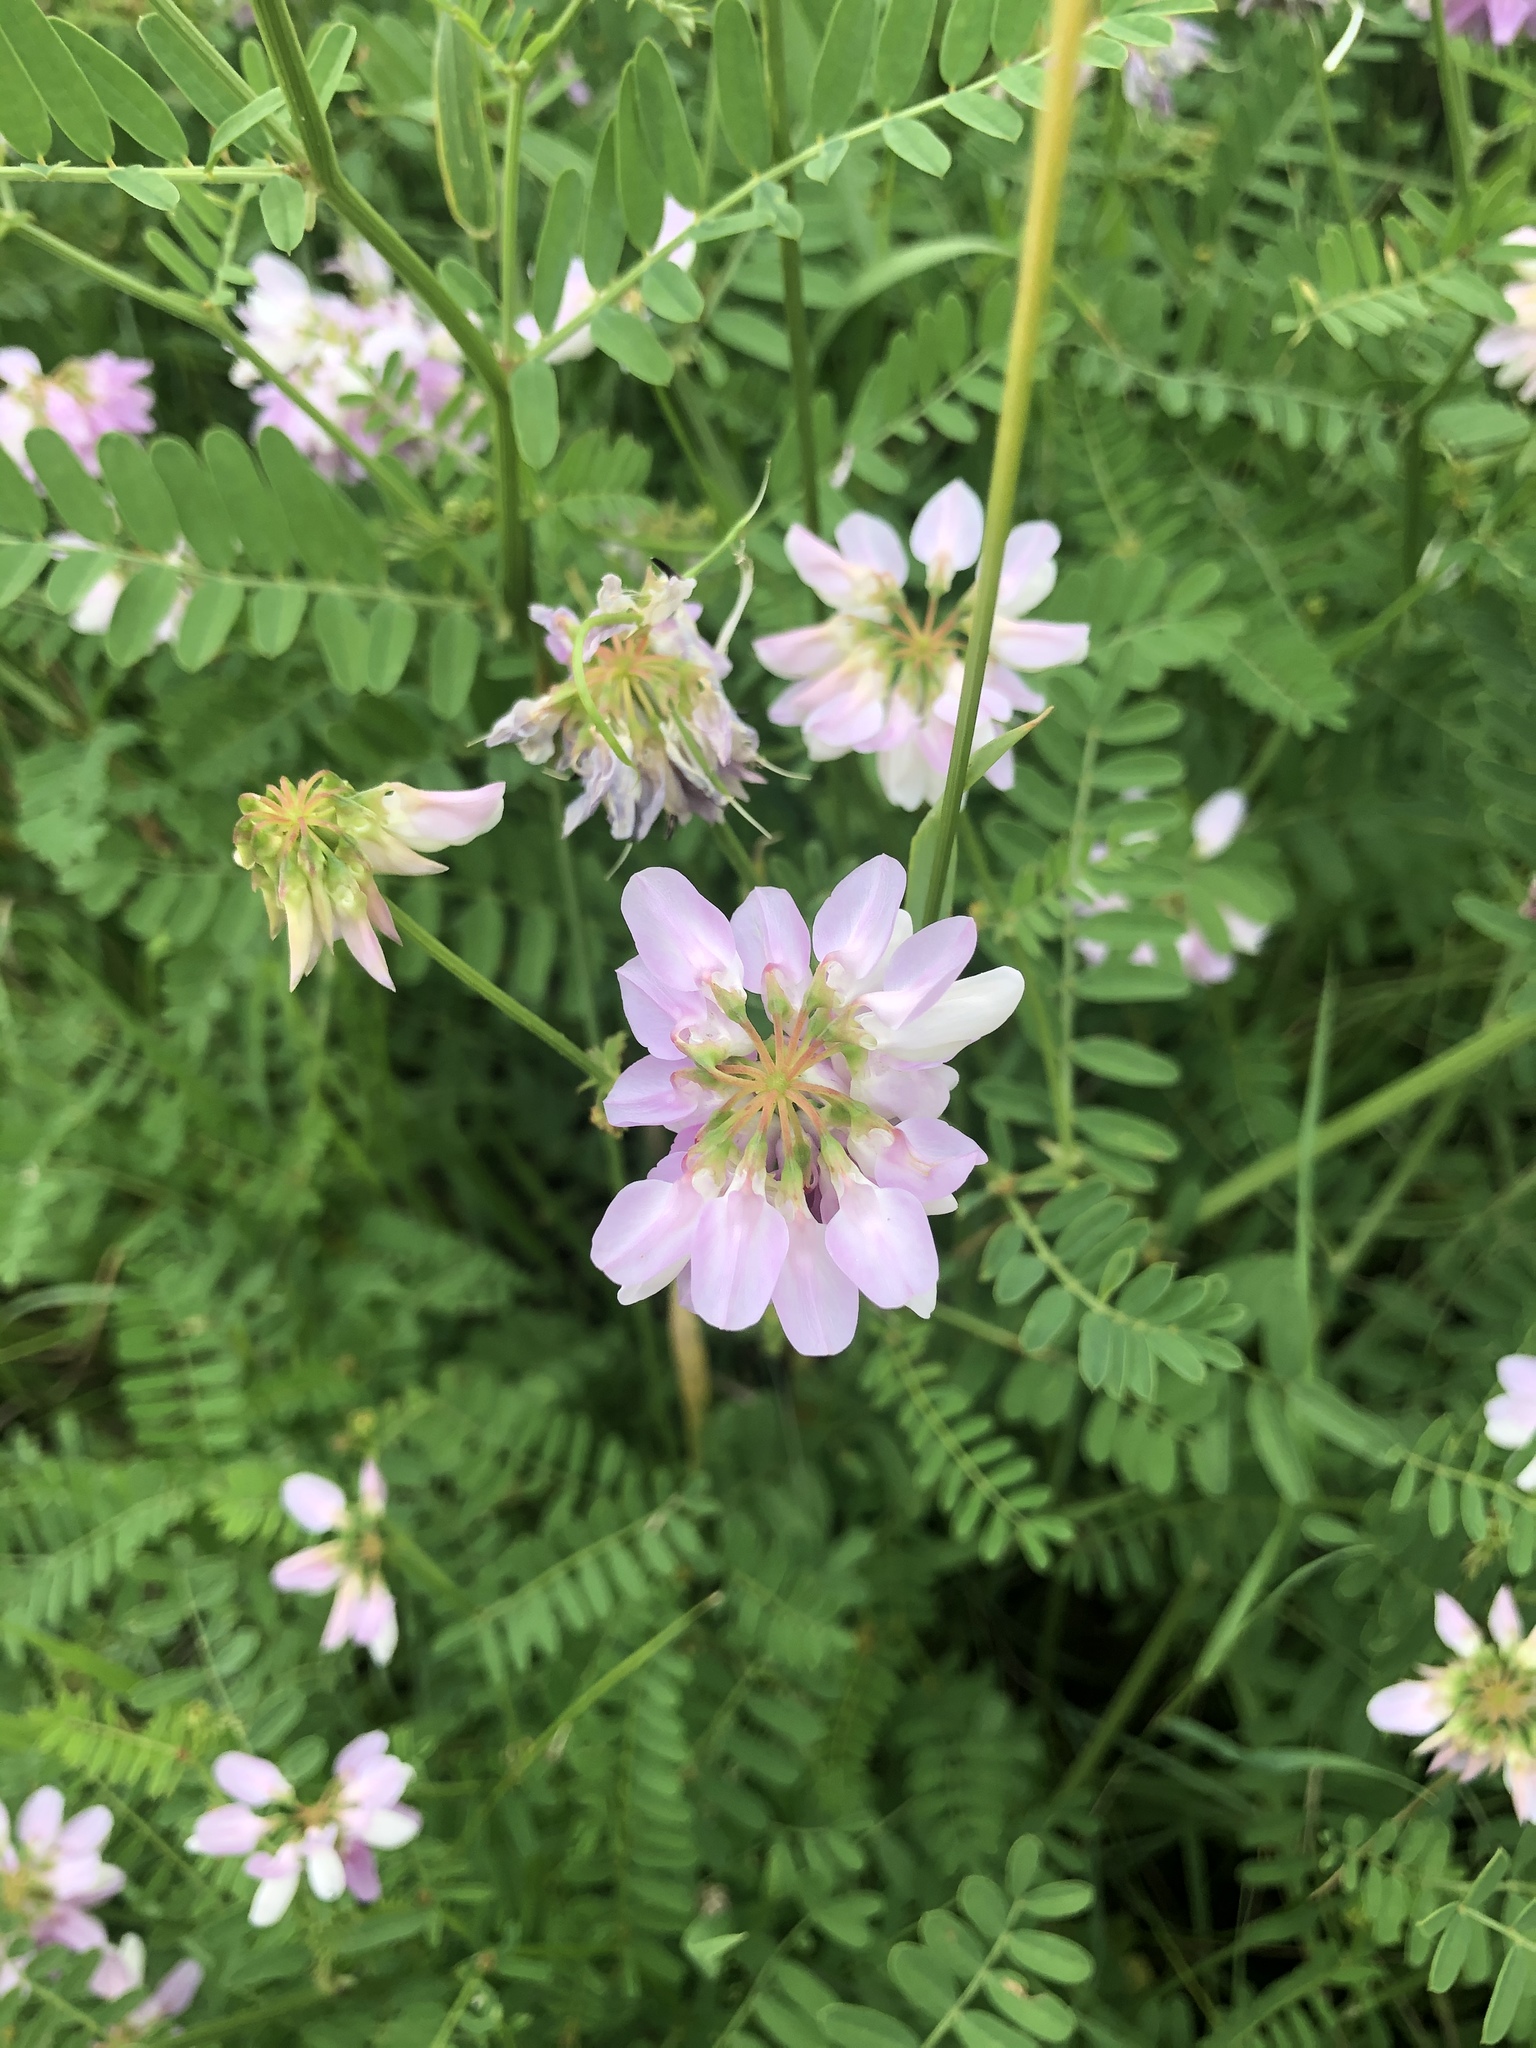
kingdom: Plantae
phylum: Tracheophyta
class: Magnoliopsida
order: Fabales
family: Fabaceae
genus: Coronilla
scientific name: Coronilla varia
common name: Crownvetch
